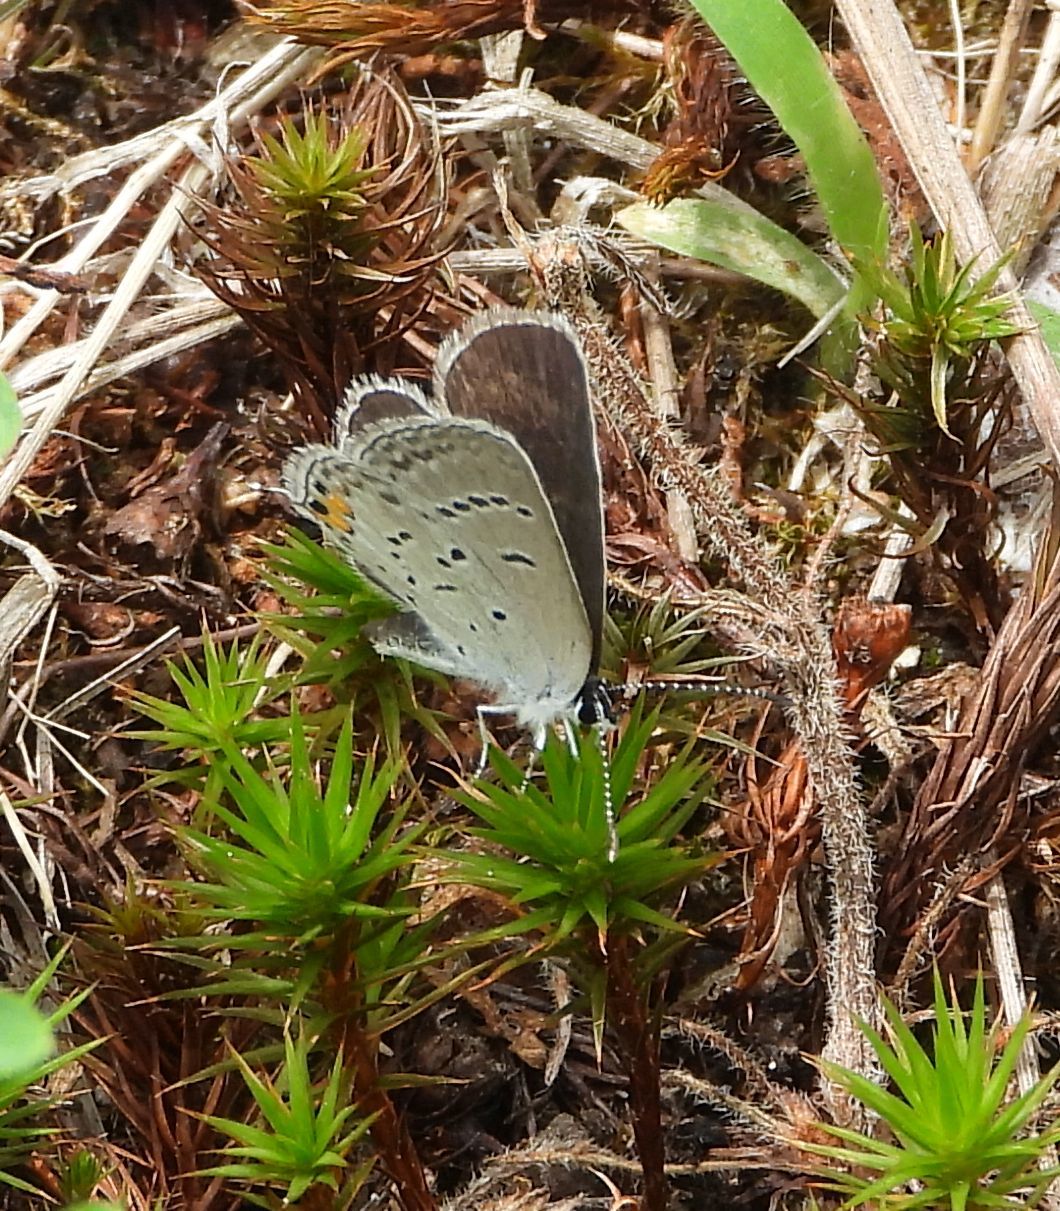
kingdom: Animalia
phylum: Arthropoda
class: Insecta
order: Lepidoptera
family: Lycaenidae
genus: Elkalyce
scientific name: Elkalyce comyntas
